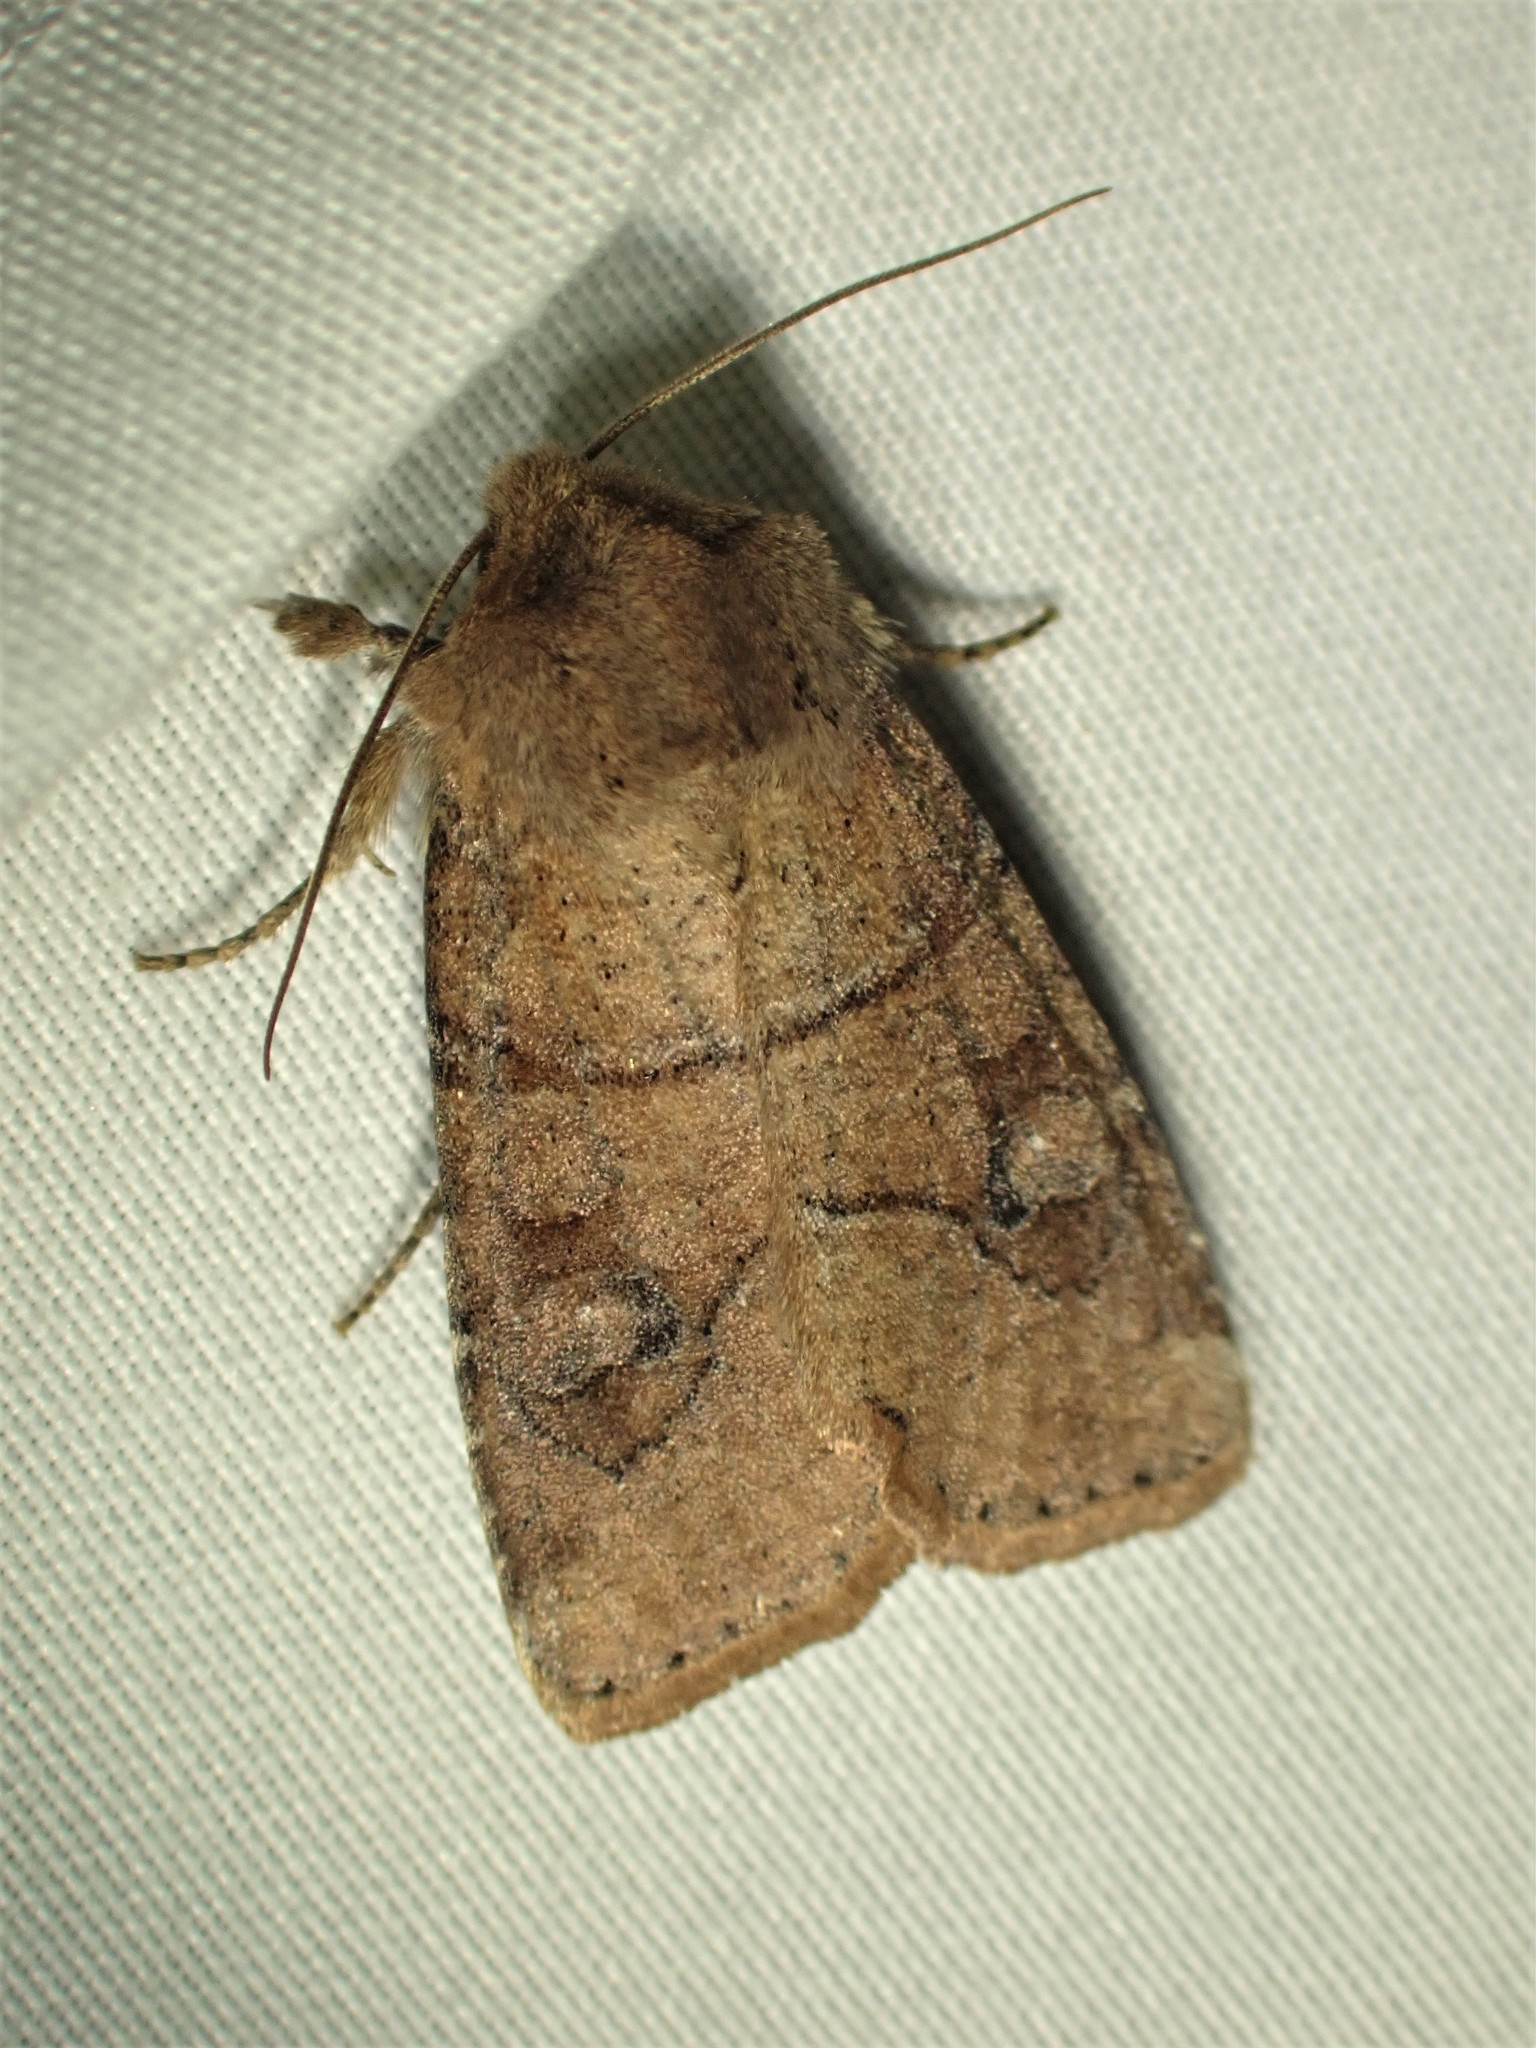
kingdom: Animalia
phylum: Arthropoda
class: Insecta
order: Lepidoptera
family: Noctuidae
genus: Crocigrapha
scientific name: Crocigrapha normani
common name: Norman's quaker
